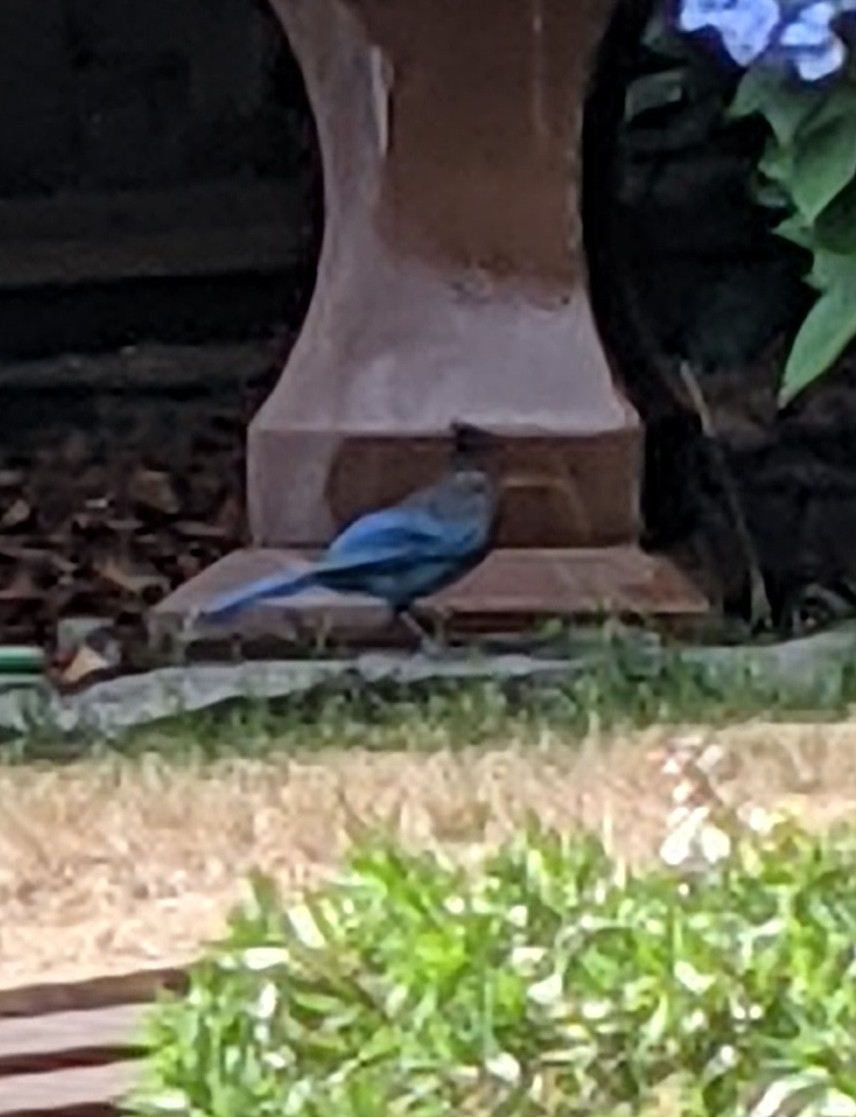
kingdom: Animalia
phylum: Chordata
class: Aves
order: Passeriformes
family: Corvidae
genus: Cyanocitta
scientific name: Cyanocitta stelleri
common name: Steller's jay
